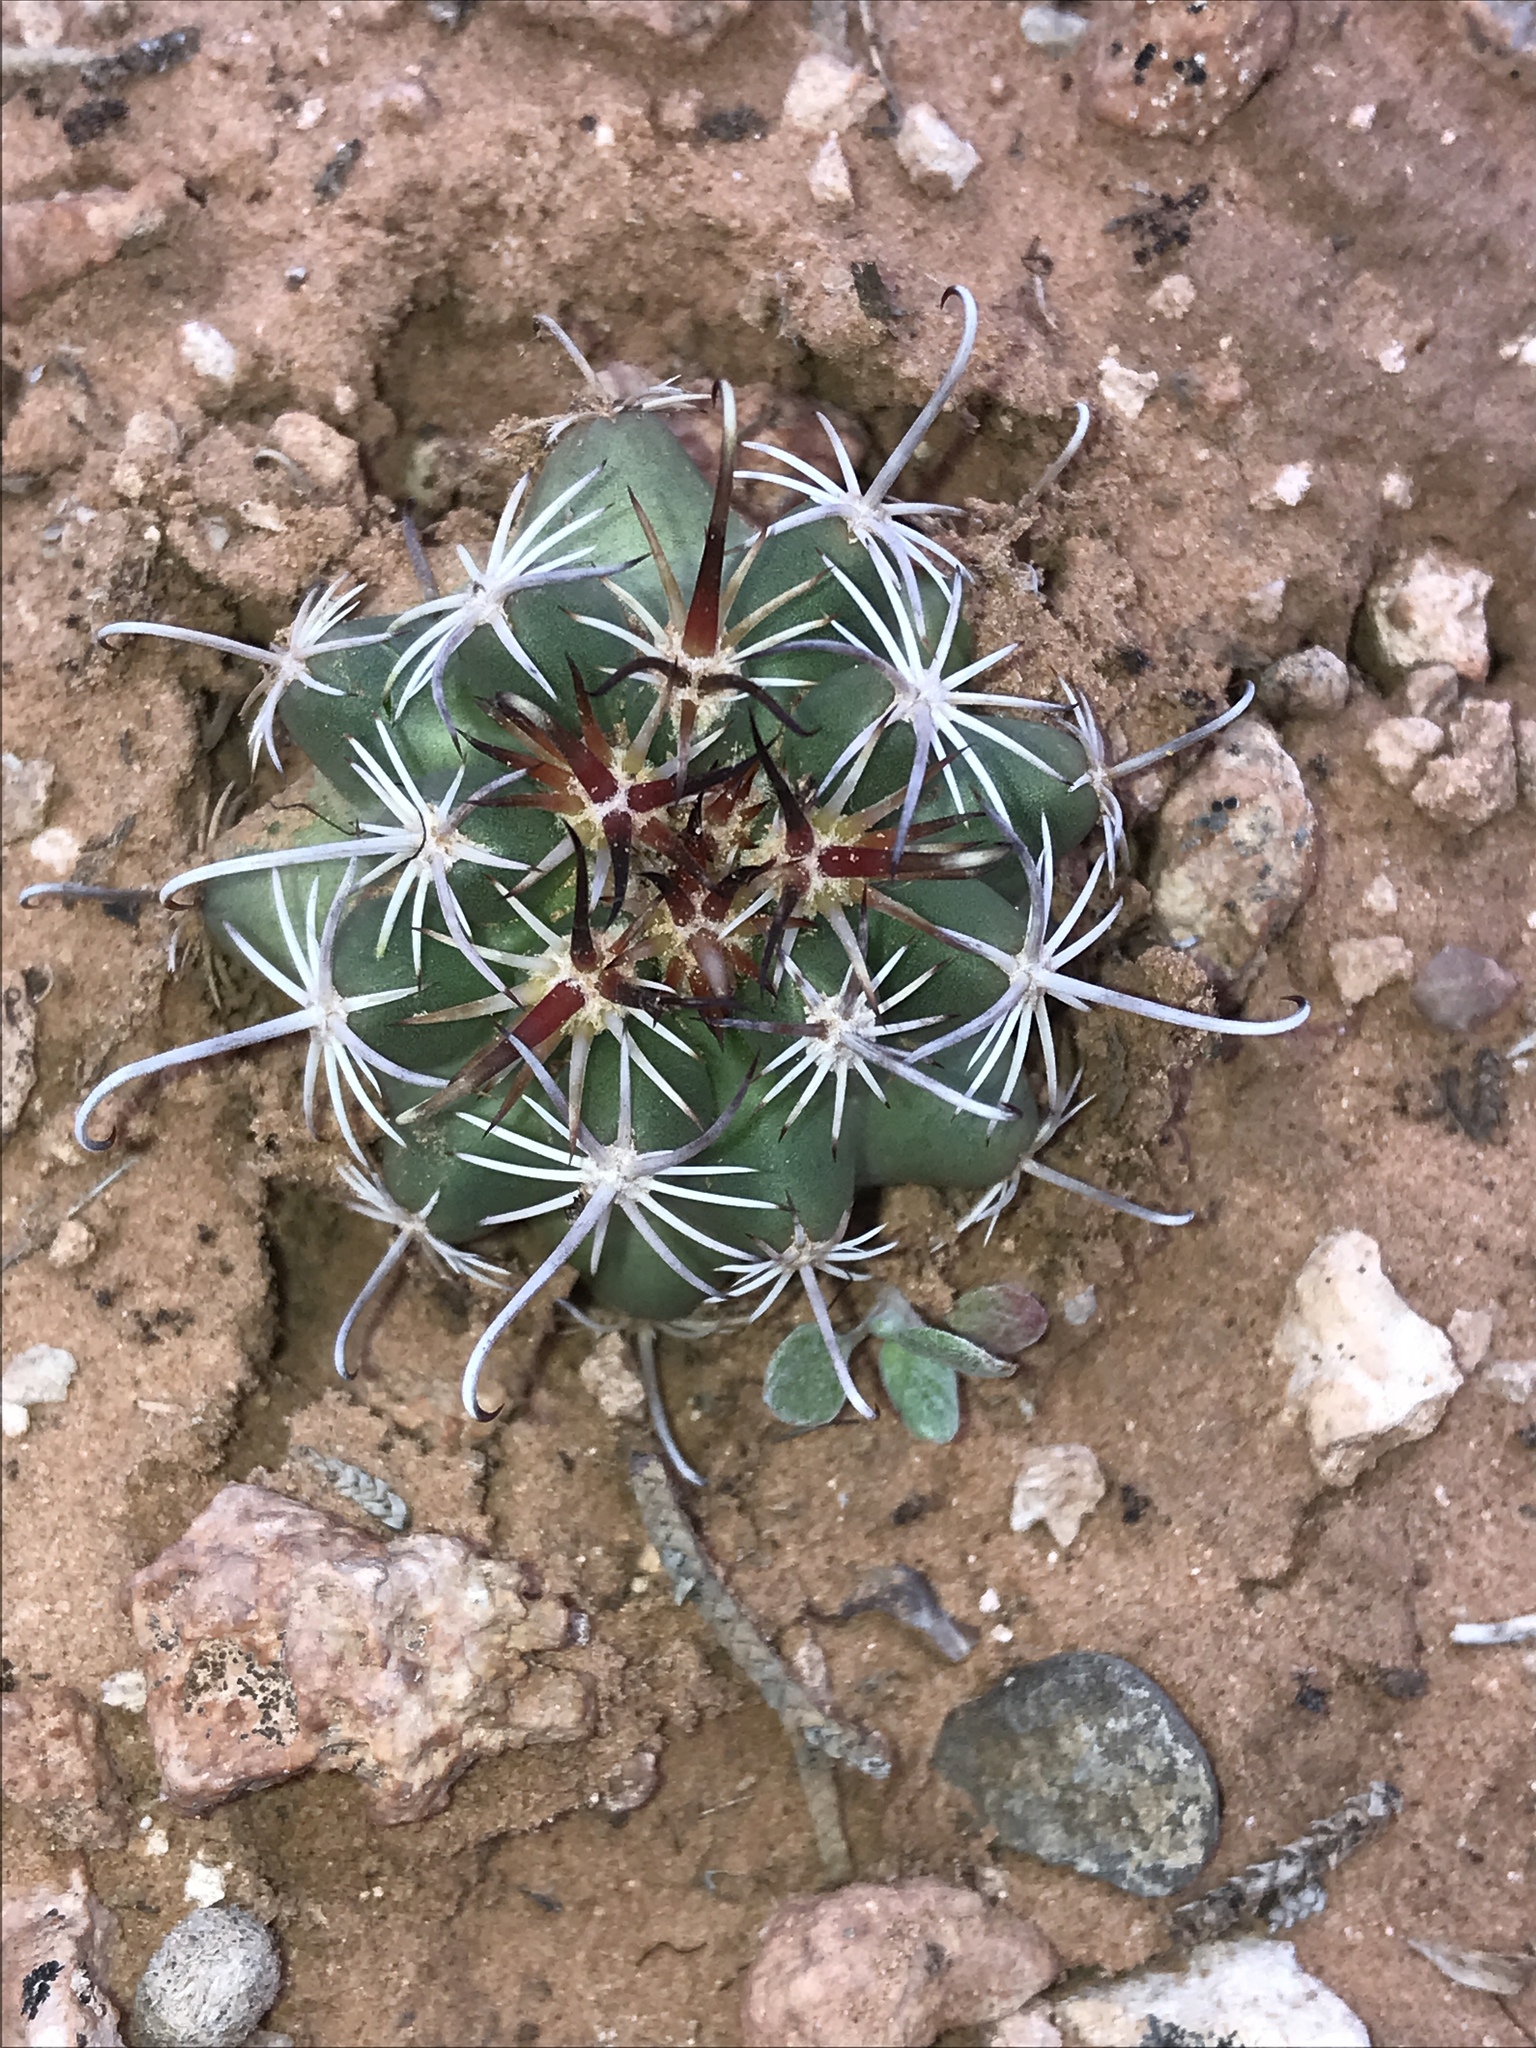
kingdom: Plantae
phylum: Tracheophyta
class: Magnoliopsida
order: Caryophyllales
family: Cactaceae
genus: Sclerocactus
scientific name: Sclerocactus parviflorus
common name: Small-flower fishhook cactus
